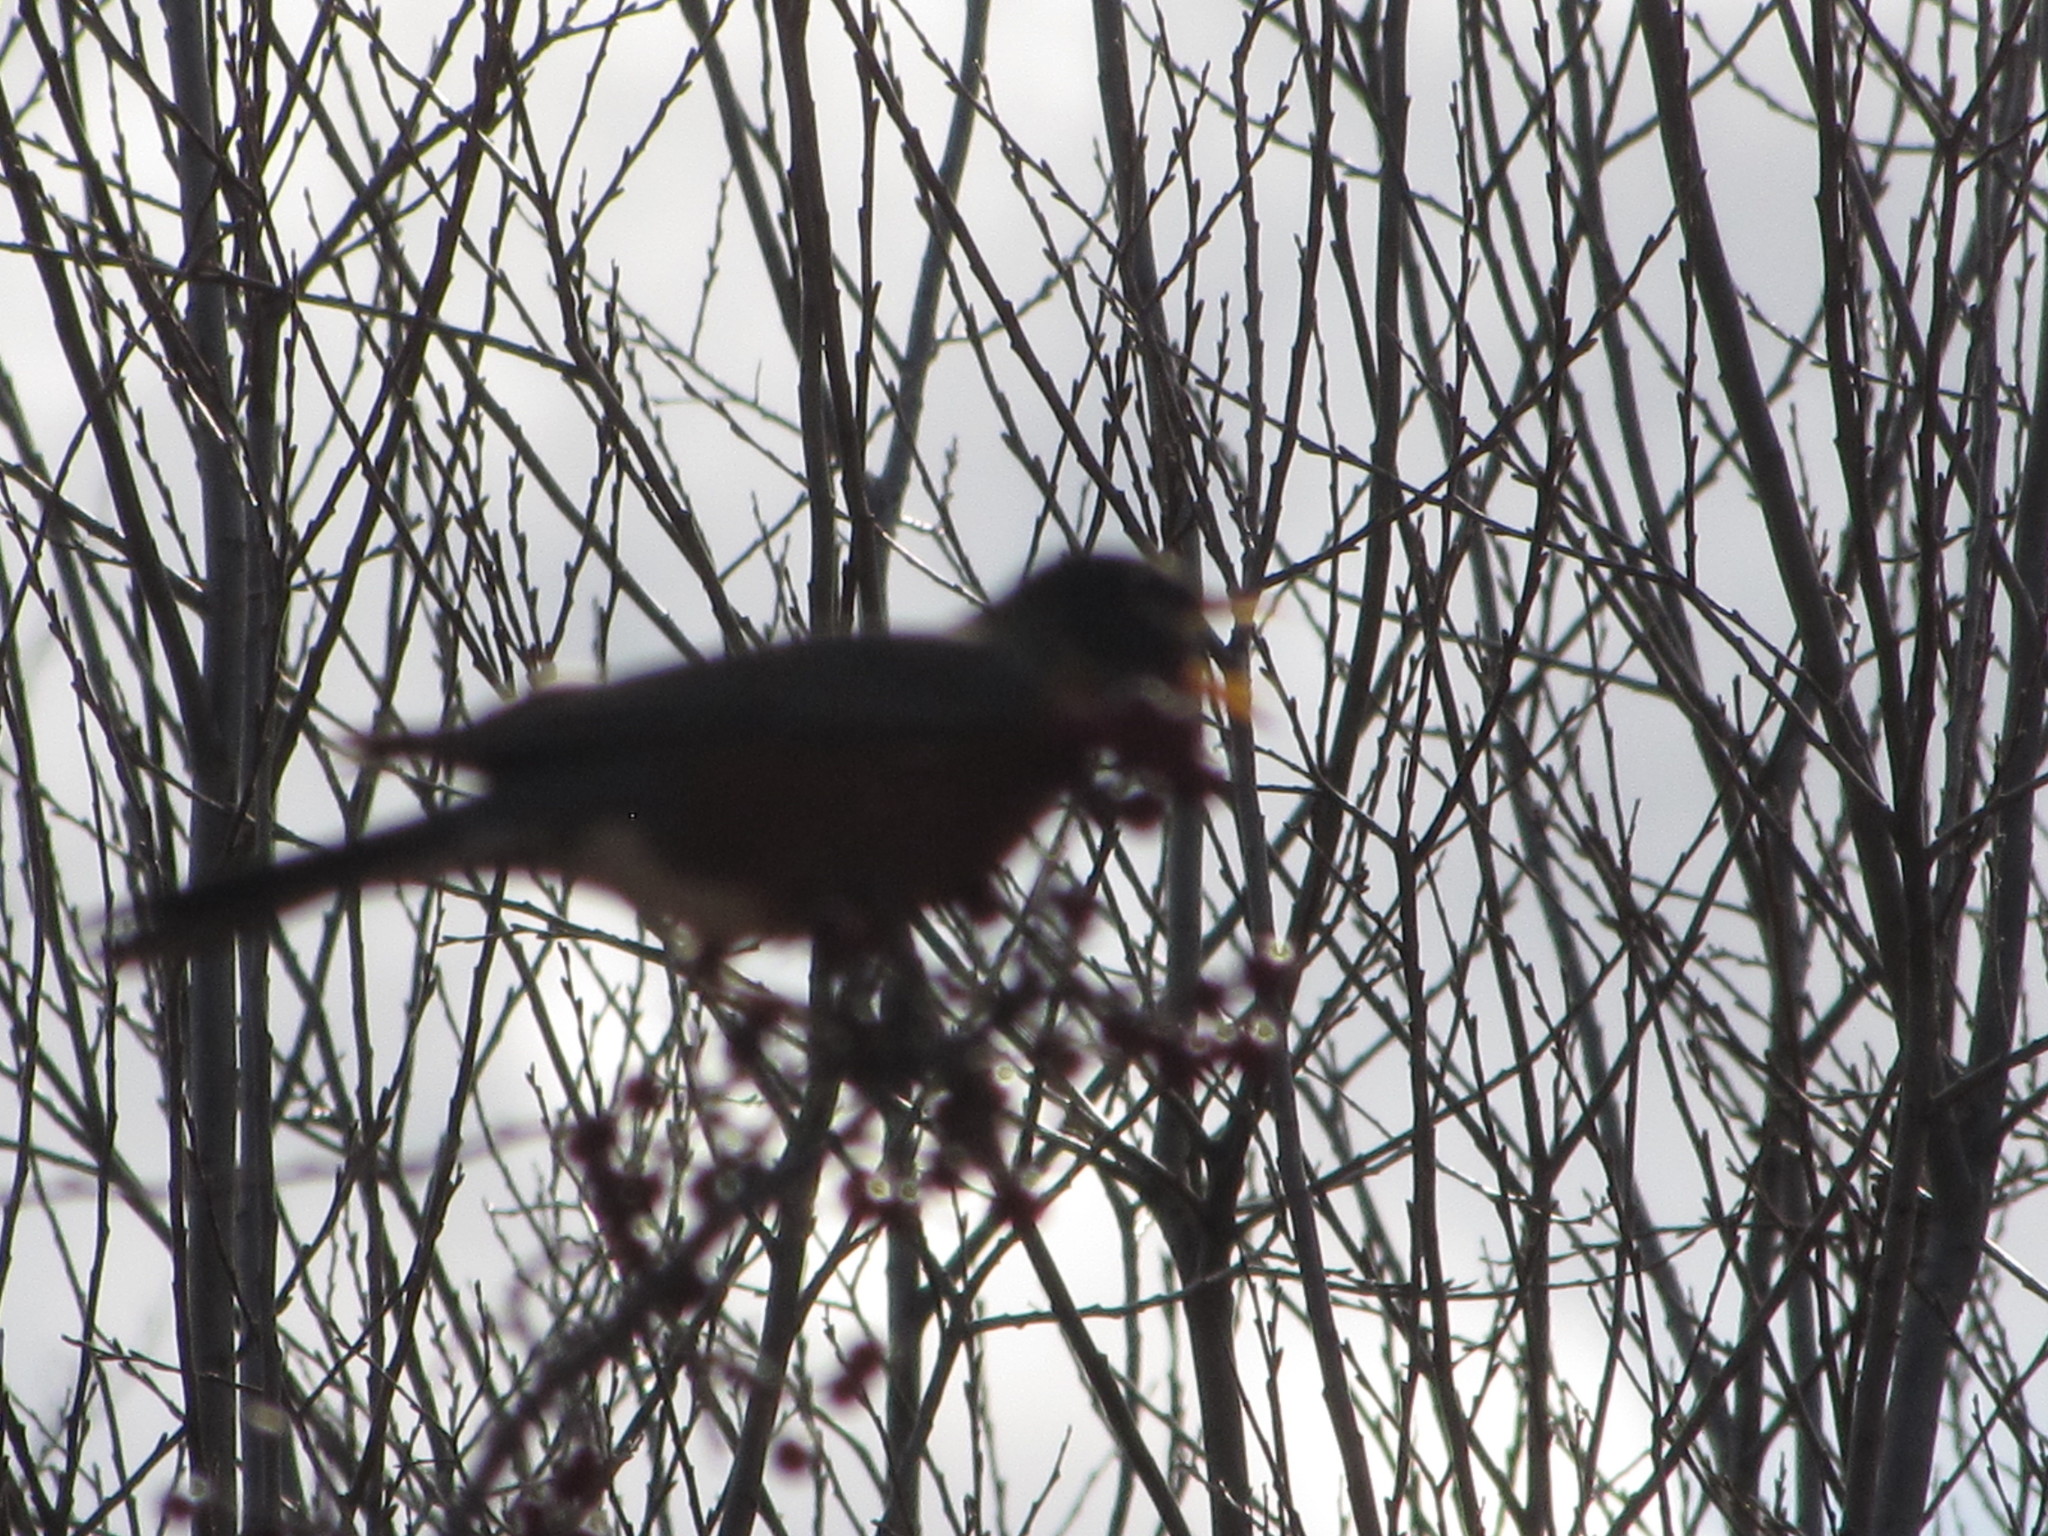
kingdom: Animalia
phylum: Chordata
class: Aves
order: Passeriformes
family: Turdidae
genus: Turdus
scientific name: Turdus migratorius
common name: American robin
